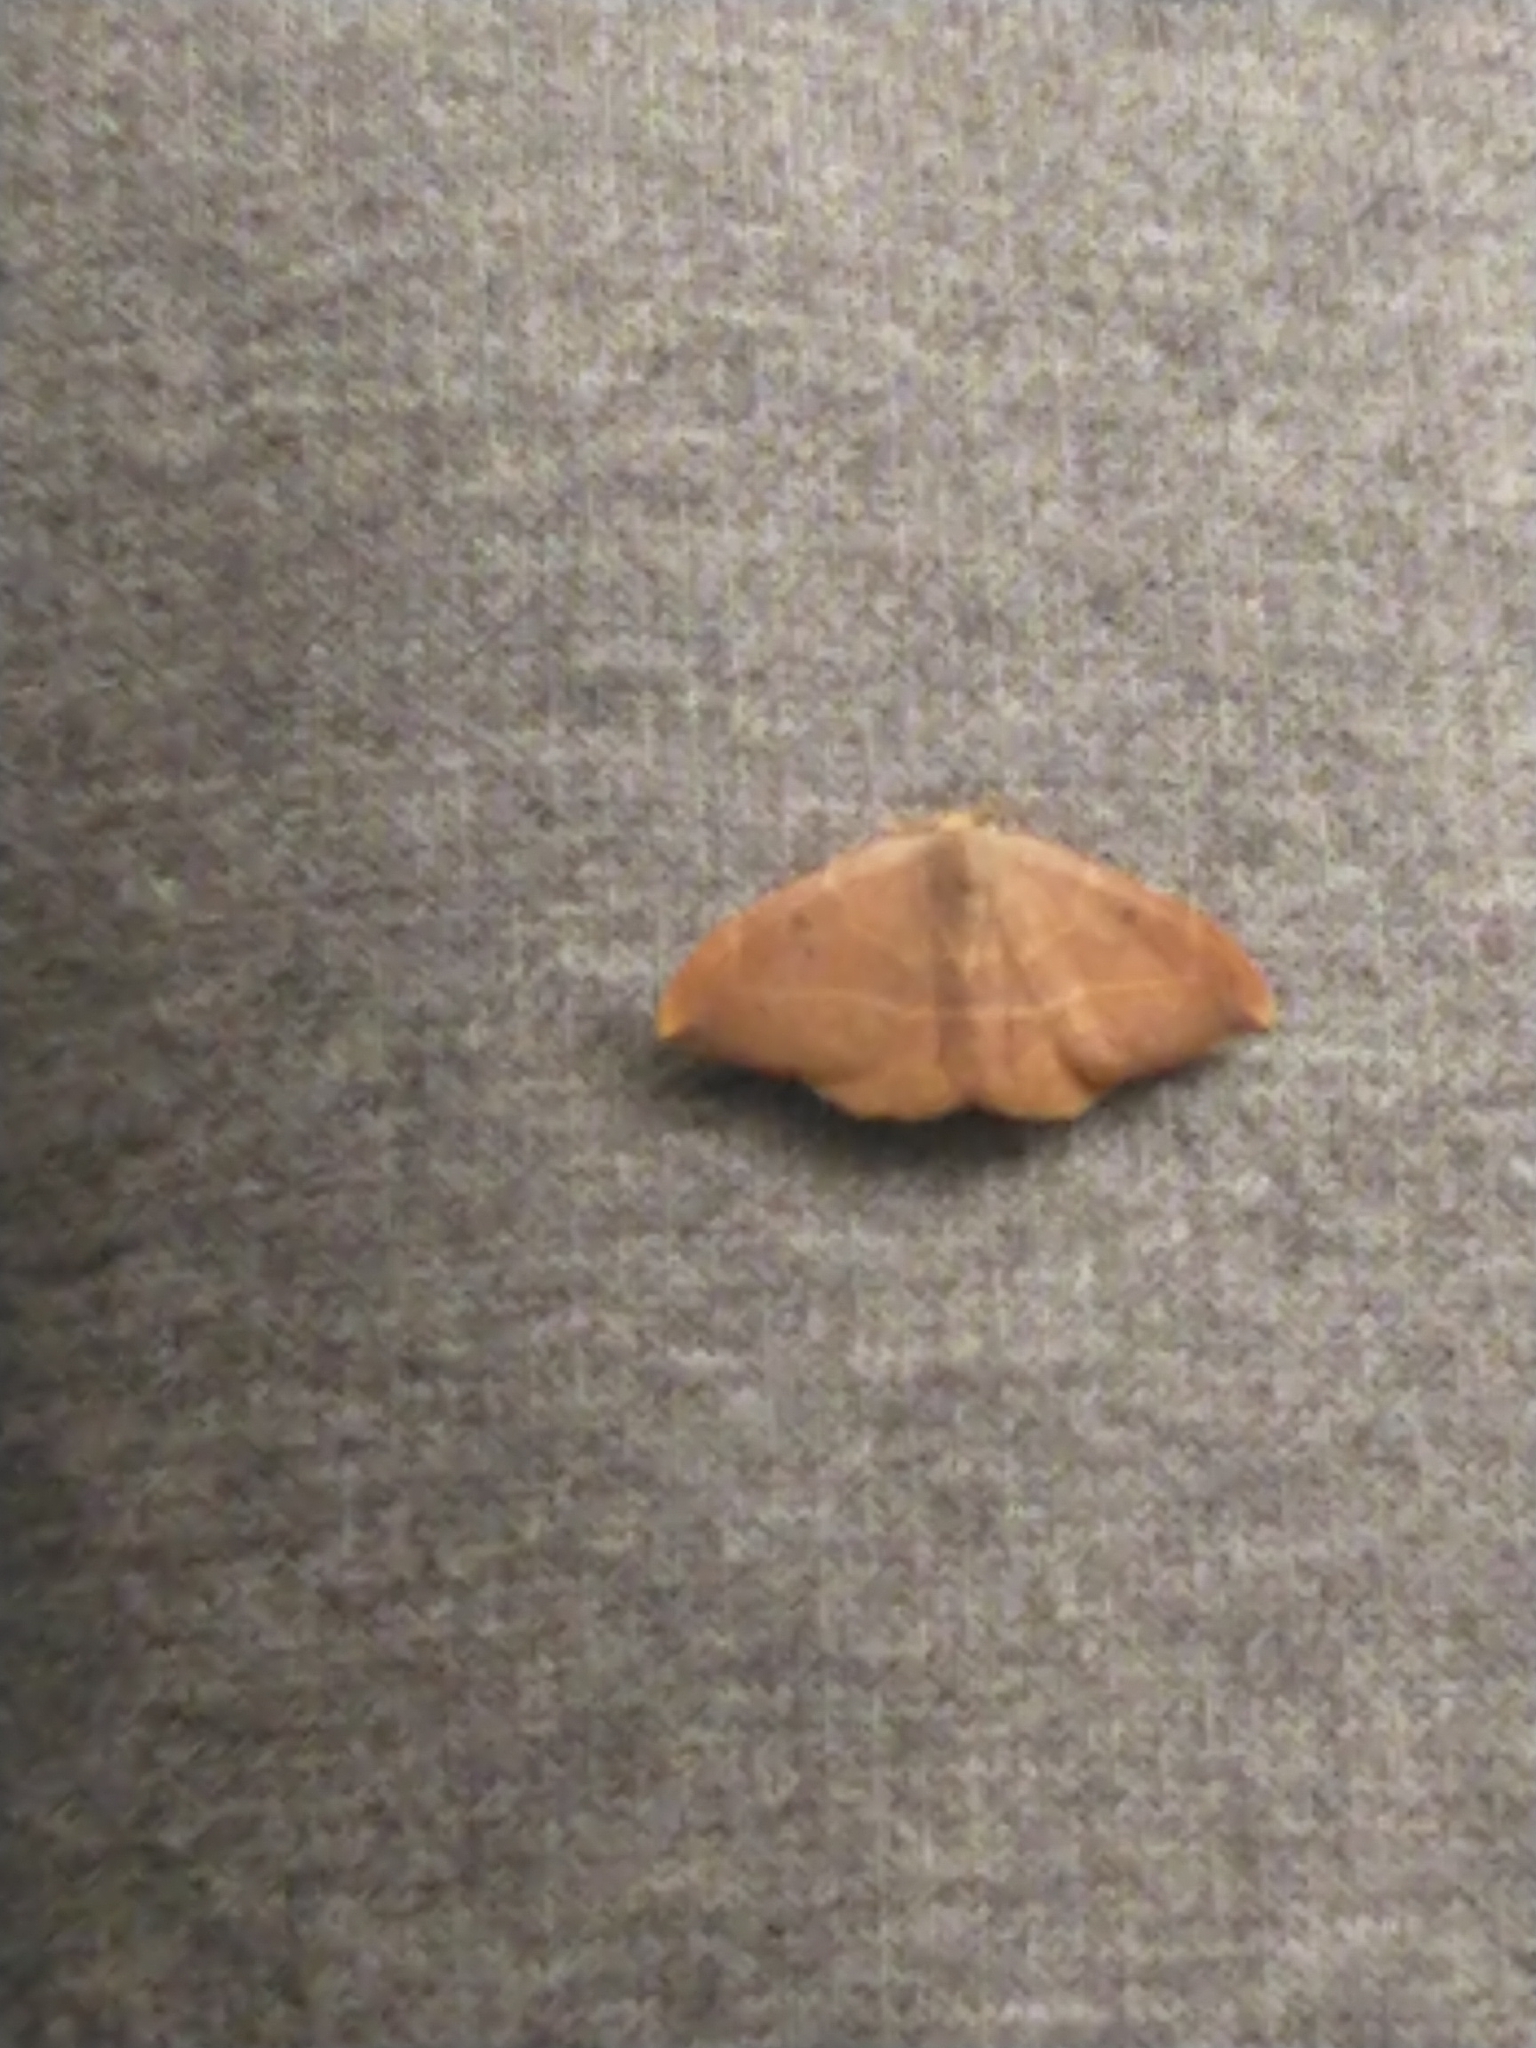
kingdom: Animalia
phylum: Arthropoda
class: Insecta
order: Lepidoptera
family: Drepanidae
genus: Watsonalla
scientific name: Watsonalla binaria
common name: Oak hook-tip
